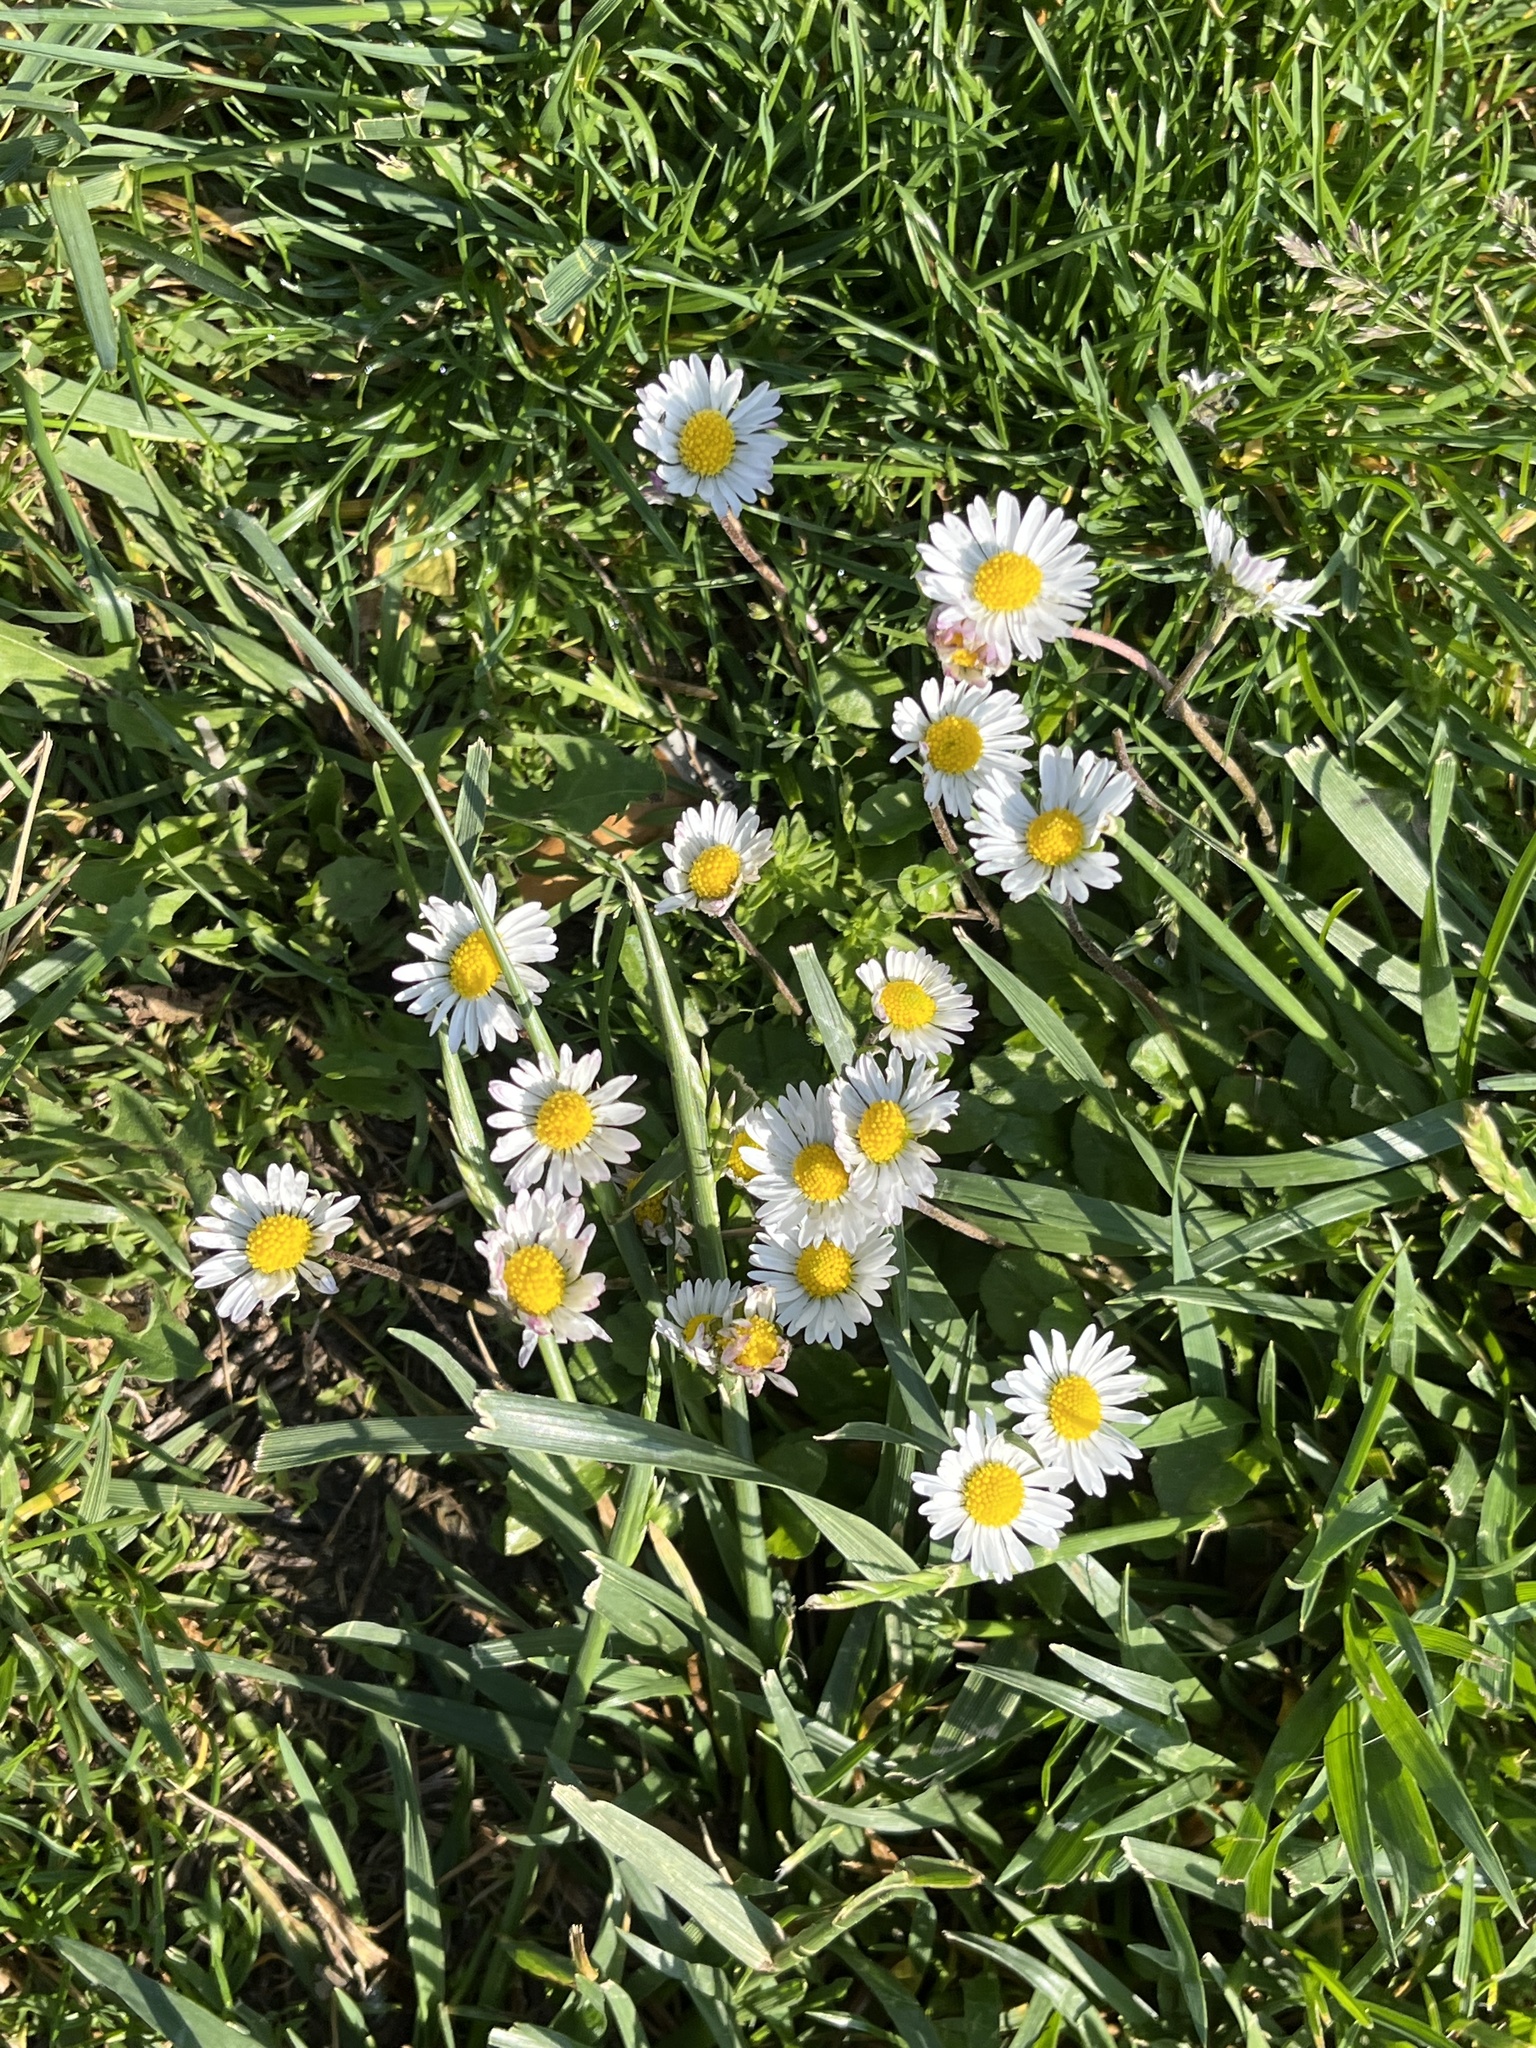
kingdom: Plantae
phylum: Tracheophyta
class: Magnoliopsida
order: Asterales
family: Asteraceae
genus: Bellis
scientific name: Bellis perennis
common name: Lawndaisy
